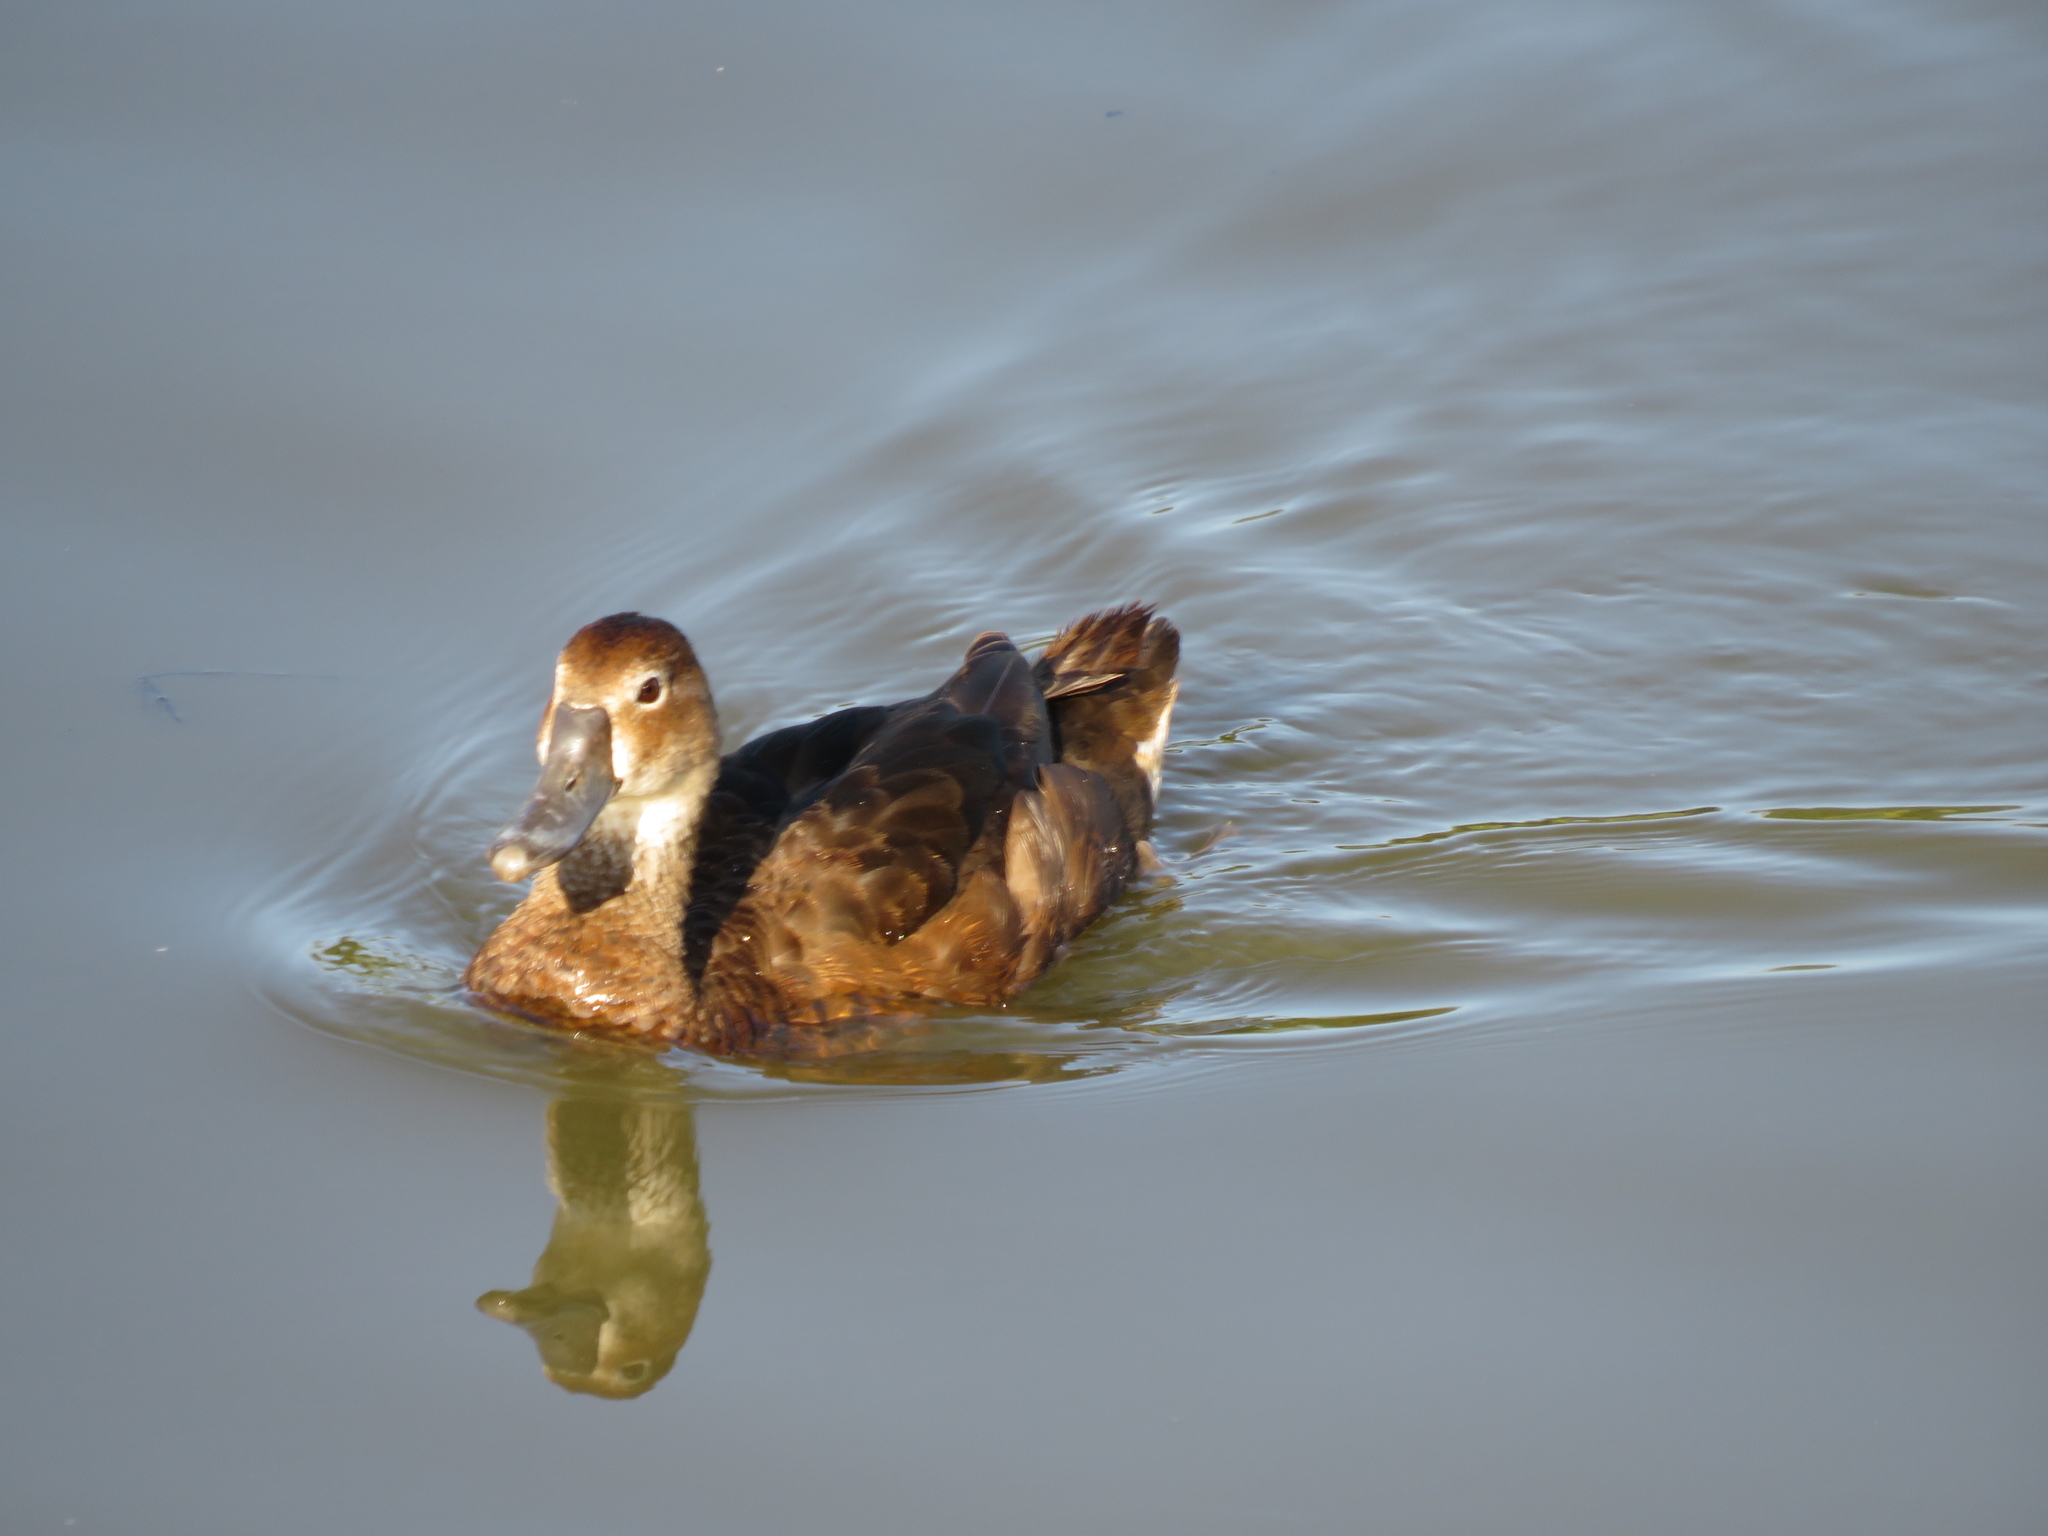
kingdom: Animalia
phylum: Chordata
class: Aves
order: Anseriformes
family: Anatidae
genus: Netta
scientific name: Netta peposaca
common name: Rosy-billed pochard
